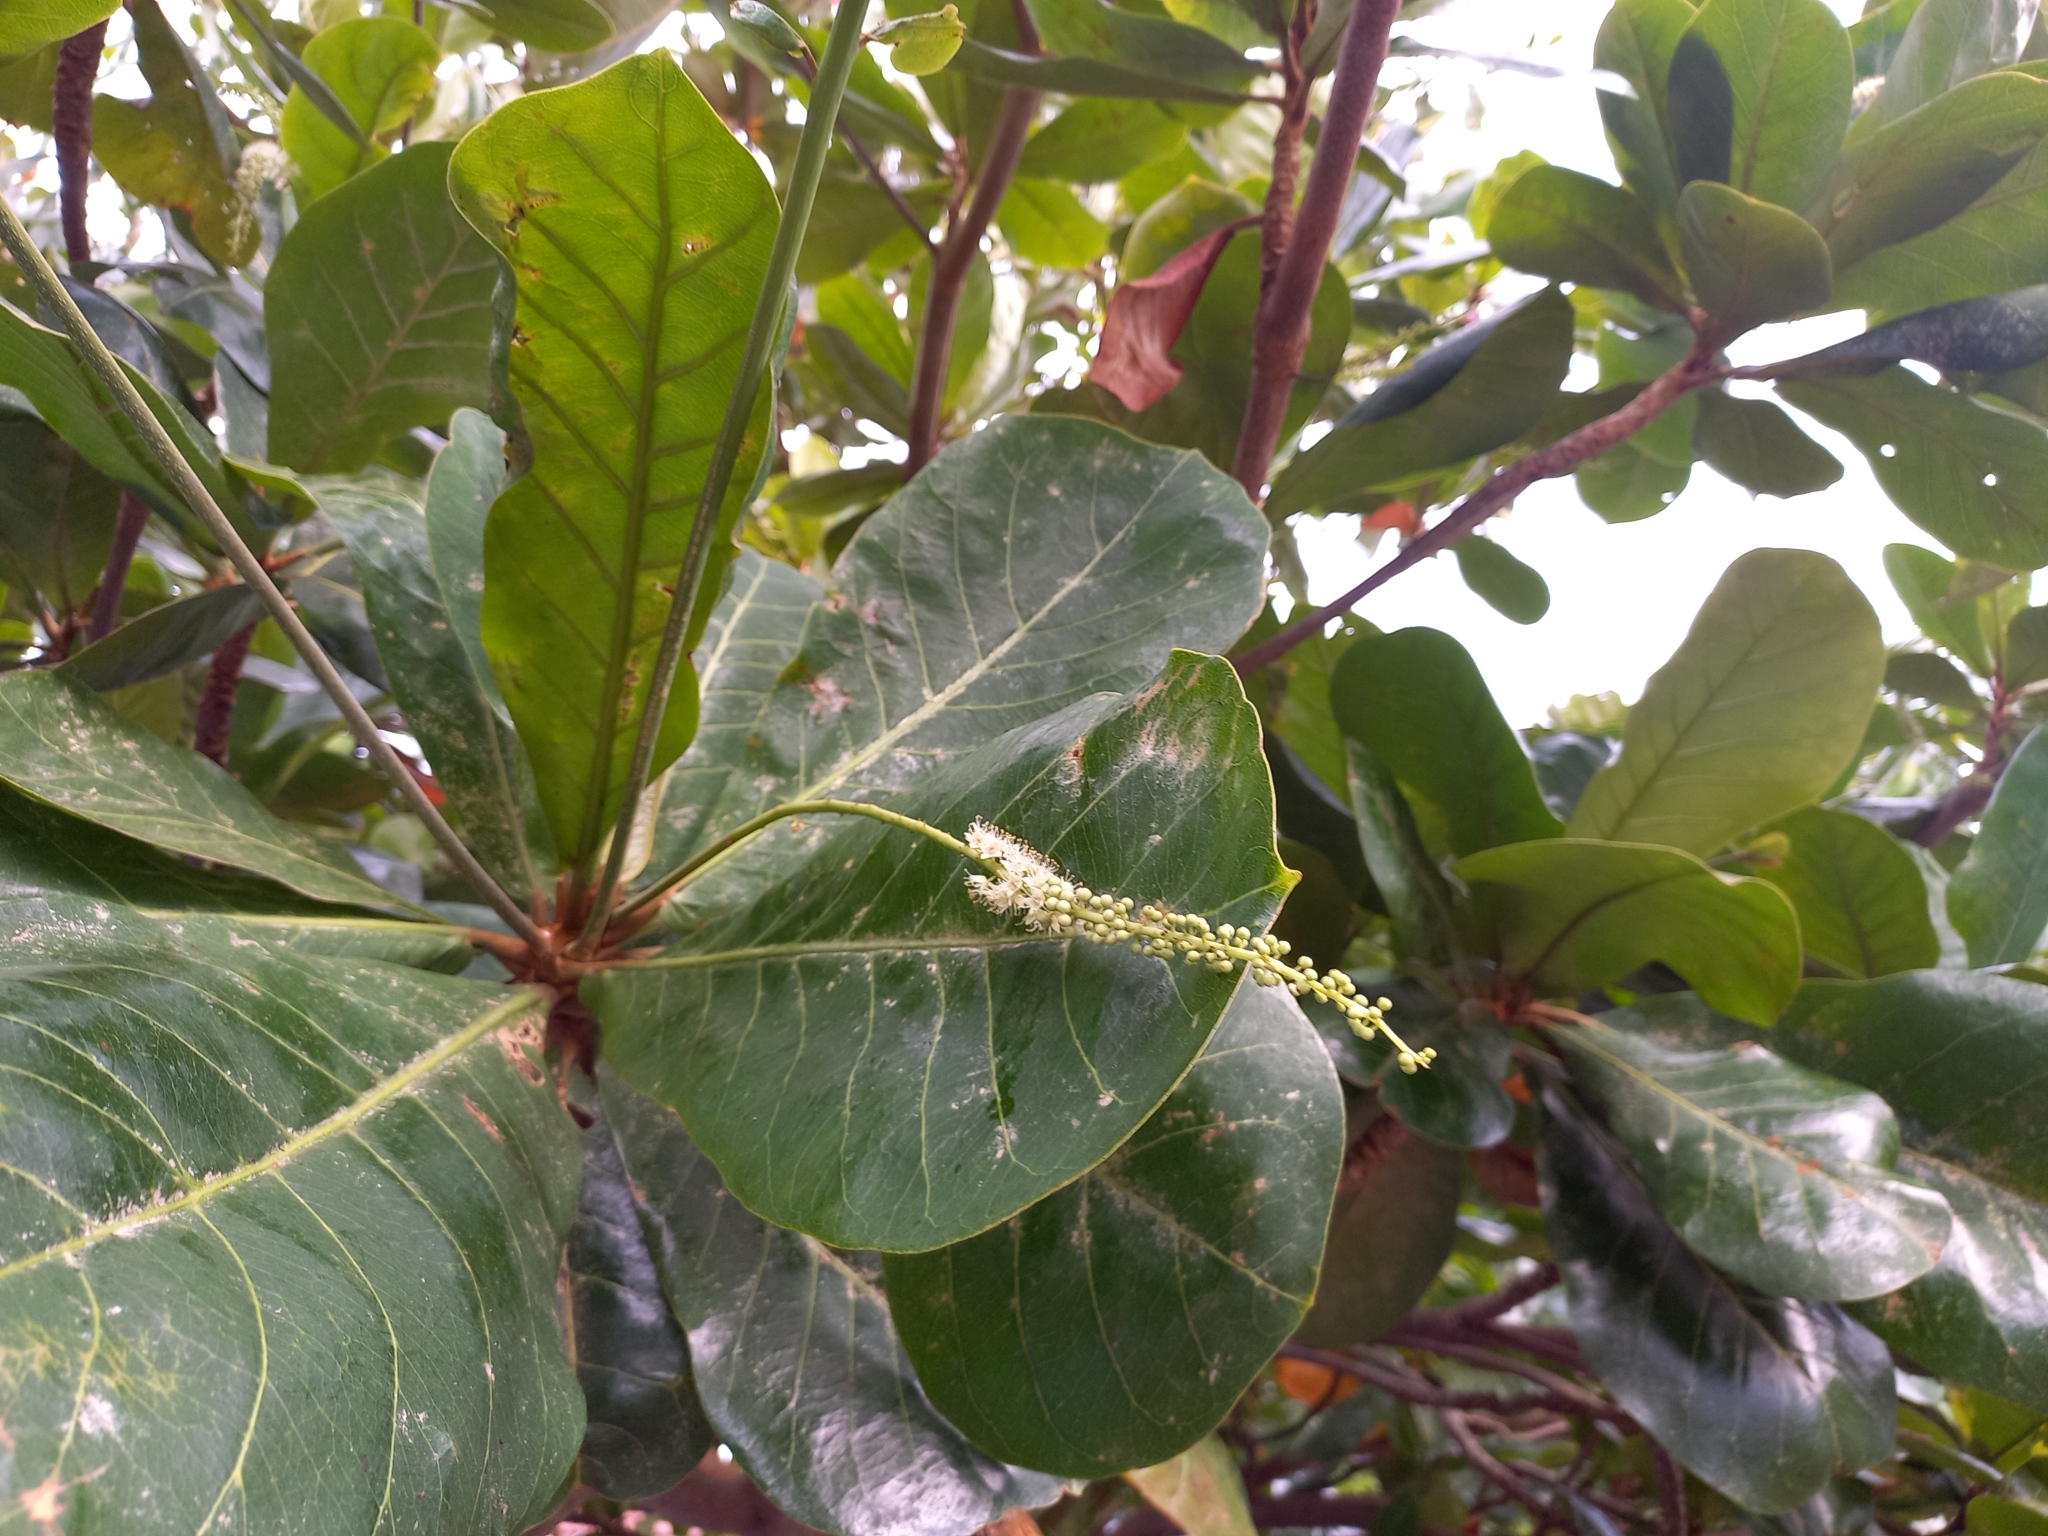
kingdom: Plantae
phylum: Tracheophyta
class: Magnoliopsida
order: Myrtales
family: Combretaceae
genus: Terminalia
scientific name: Terminalia catappa
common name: Tropical almond
